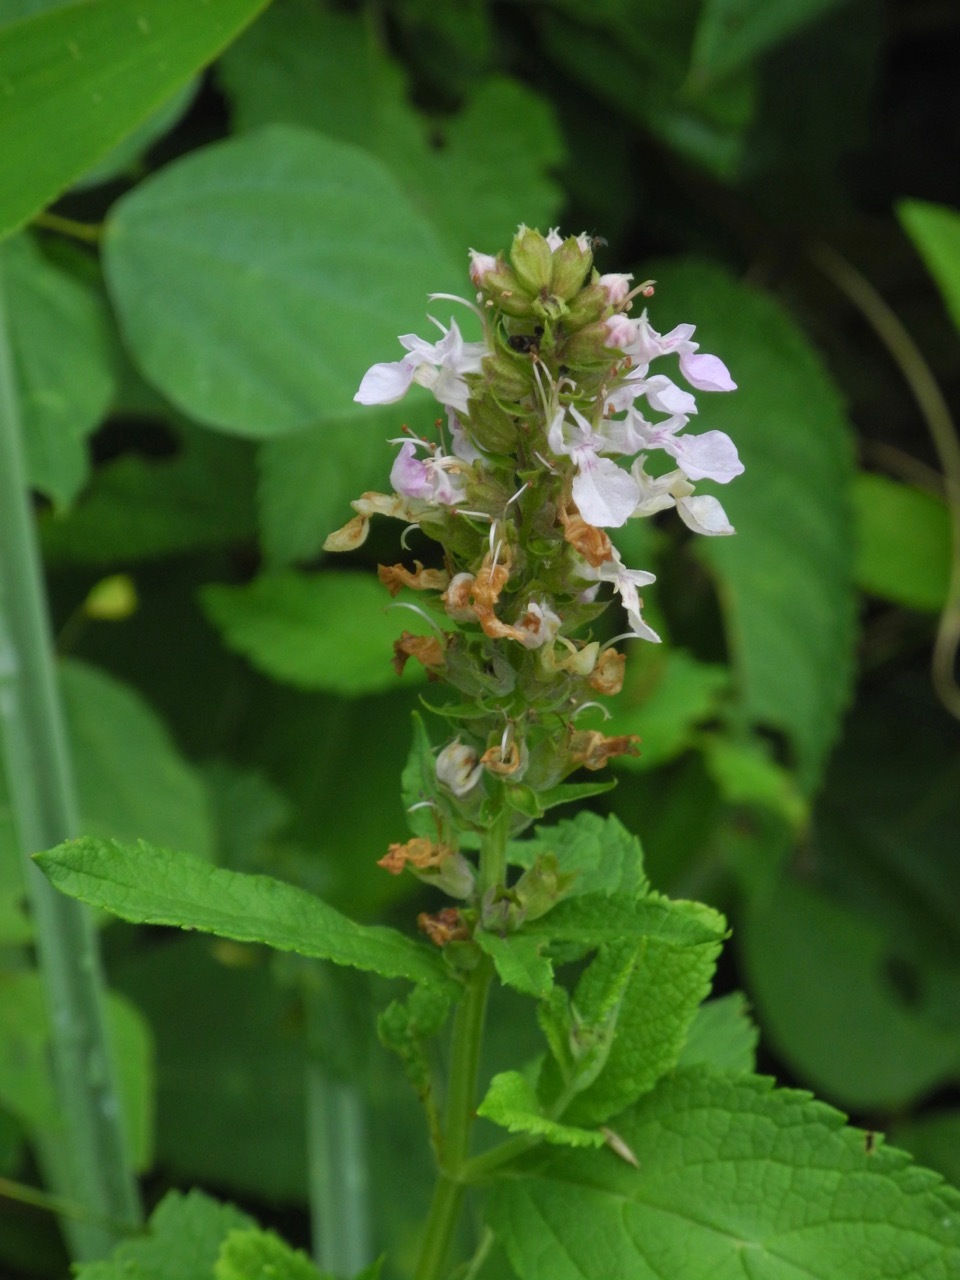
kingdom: Plantae
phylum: Tracheophyta
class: Magnoliopsida
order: Lamiales
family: Lamiaceae
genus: Stachys
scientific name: Stachys latidens
